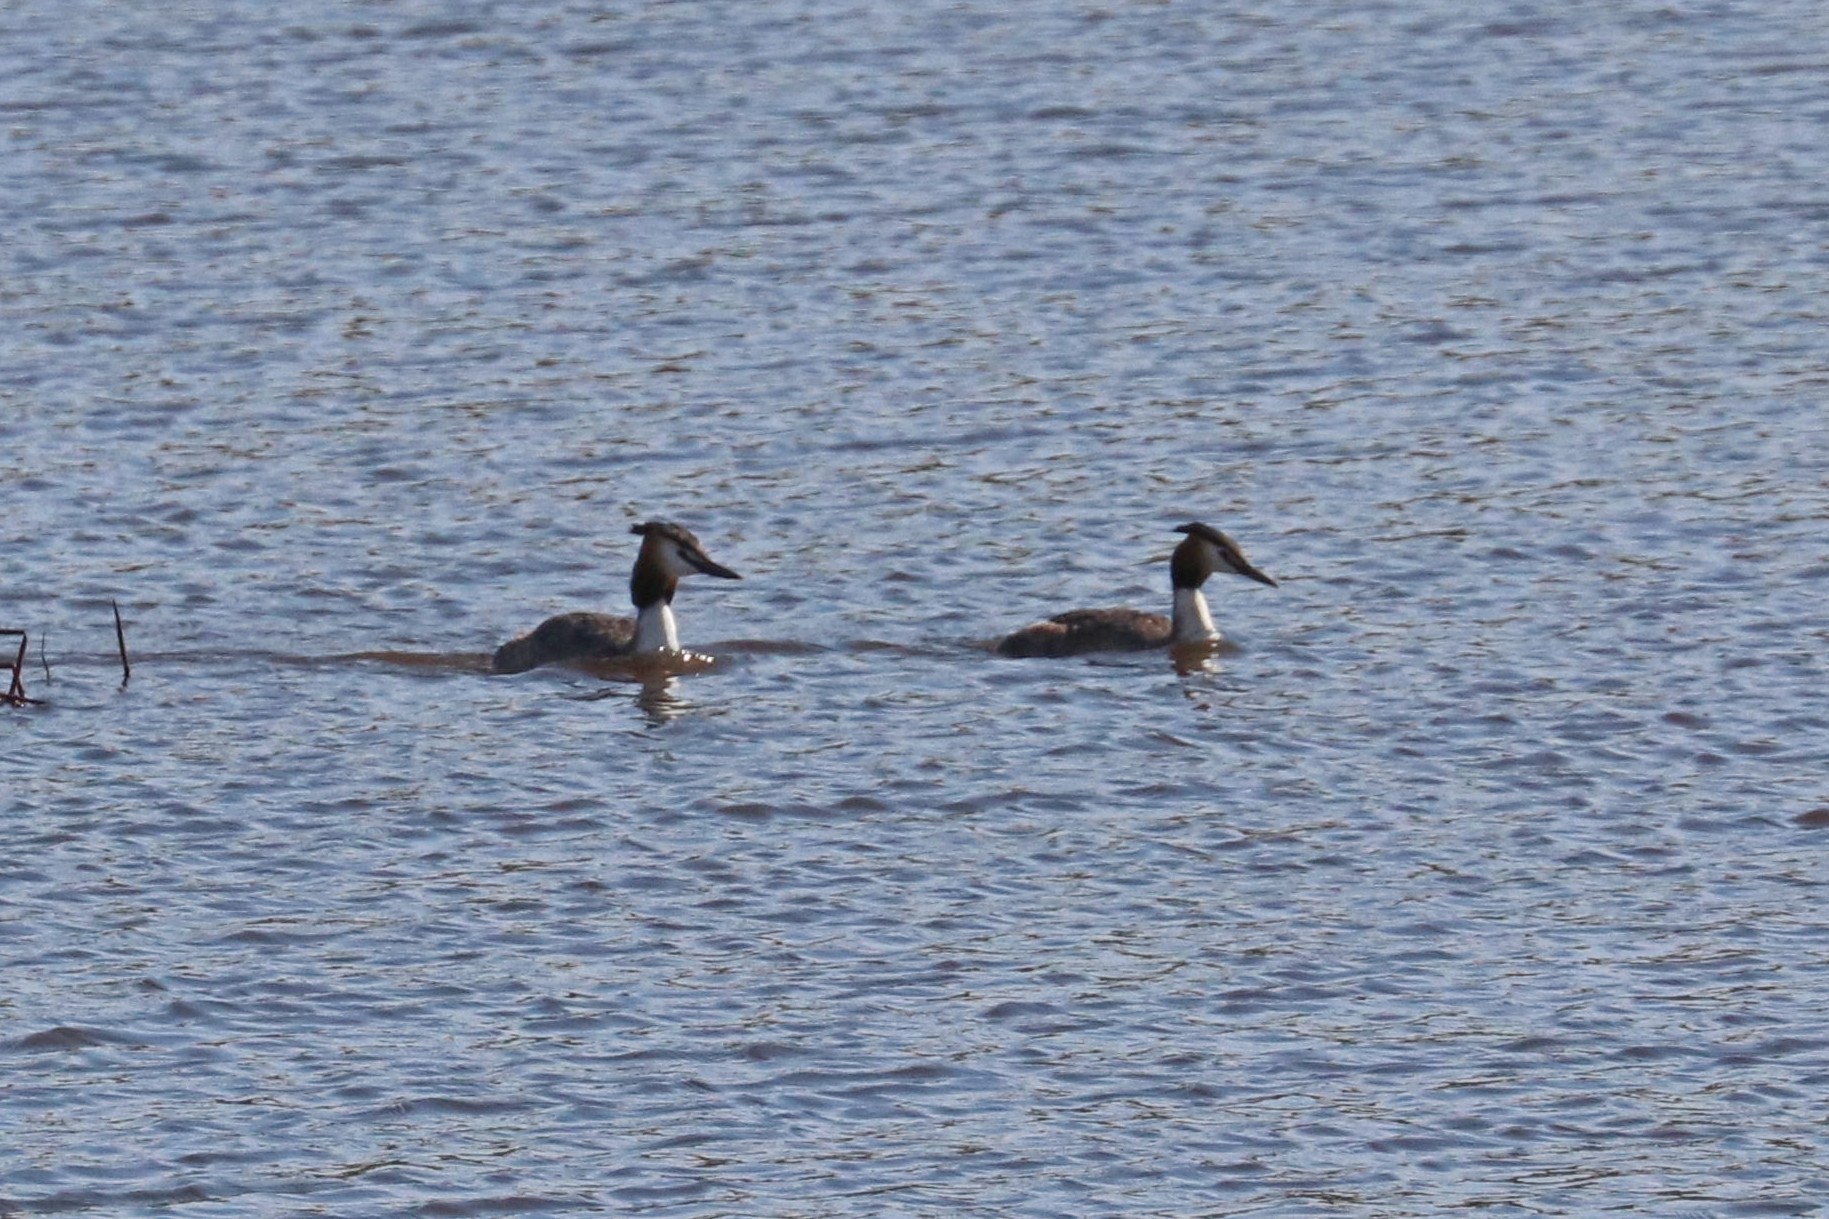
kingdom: Animalia
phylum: Chordata
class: Aves
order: Podicipediformes
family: Podicipedidae
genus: Podiceps
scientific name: Podiceps cristatus
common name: Great crested grebe
